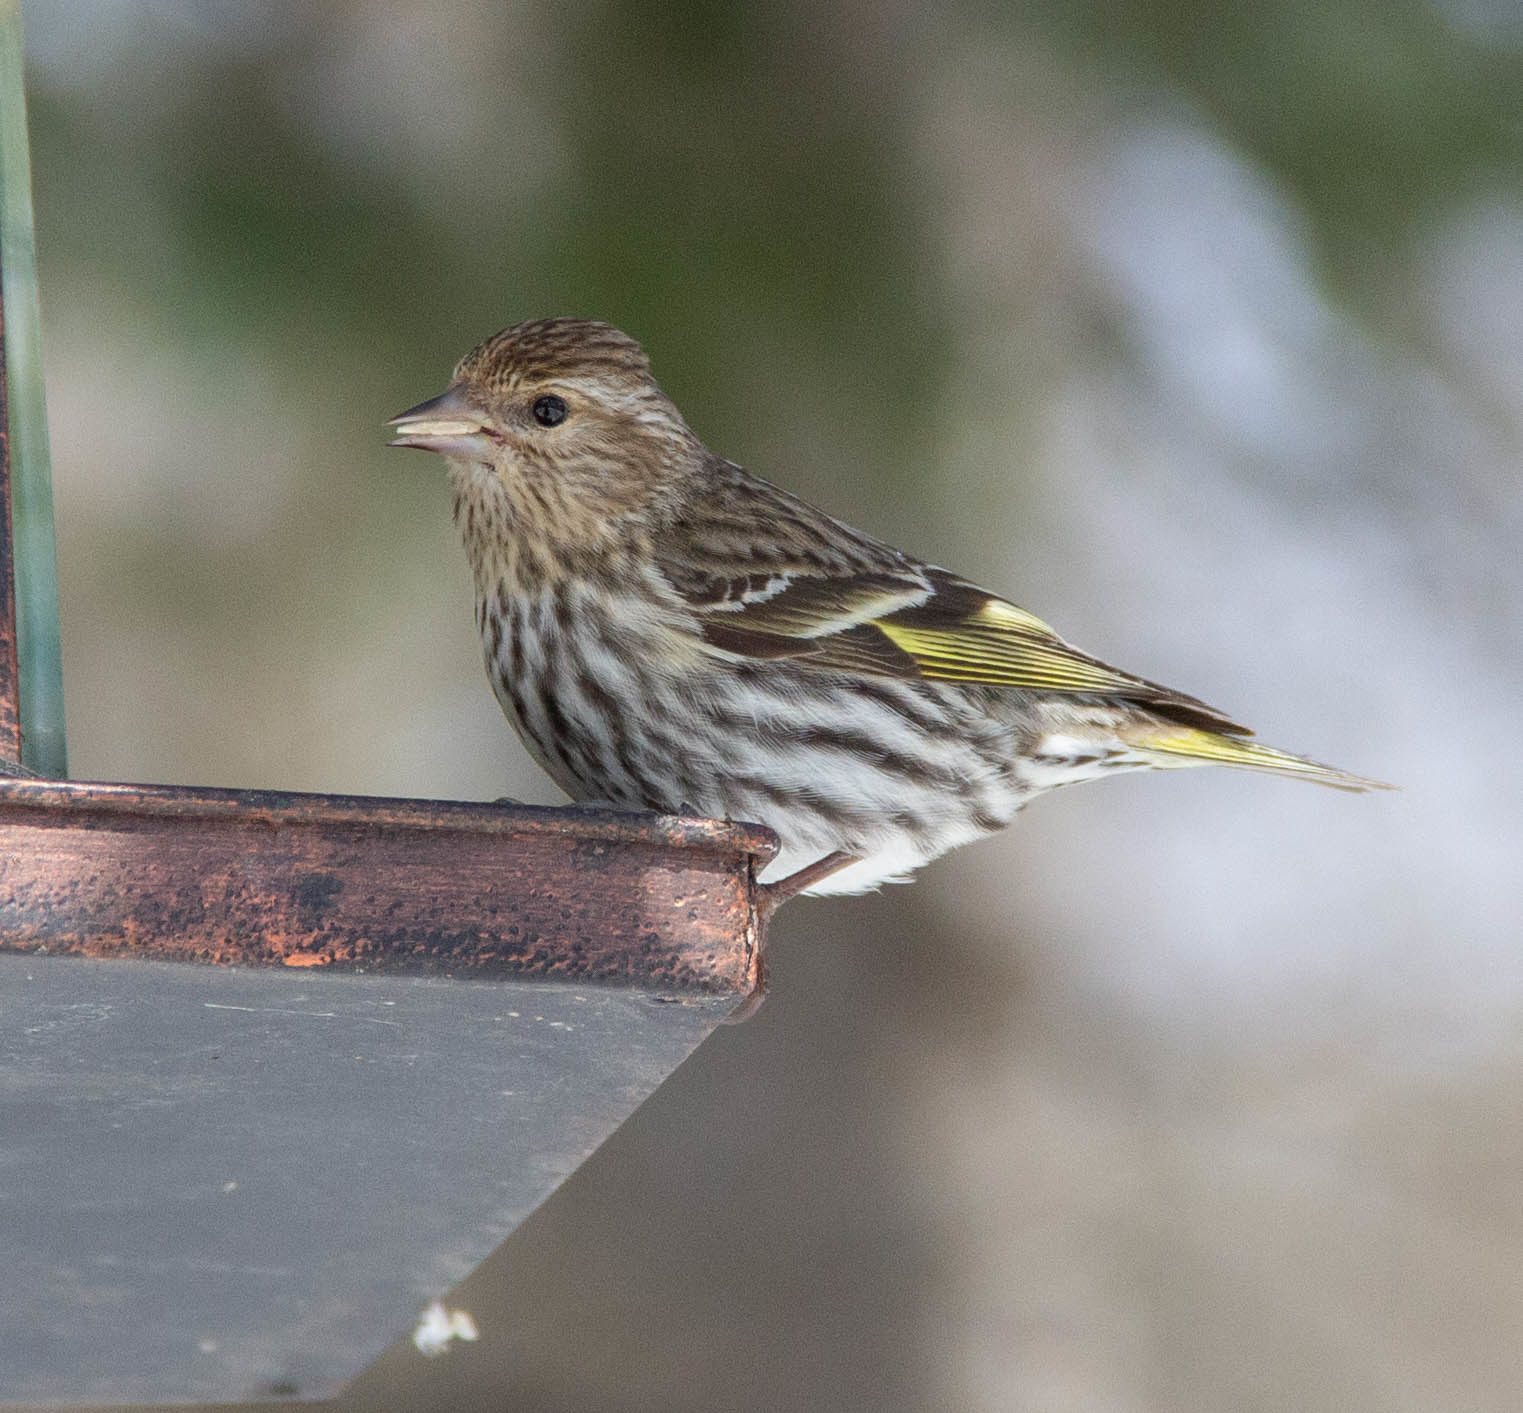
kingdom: Animalia
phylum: Chordata
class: Aves
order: Passeriformes
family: Fringillidae
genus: Spinus
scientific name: Spinus pinus
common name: Pine siskin
